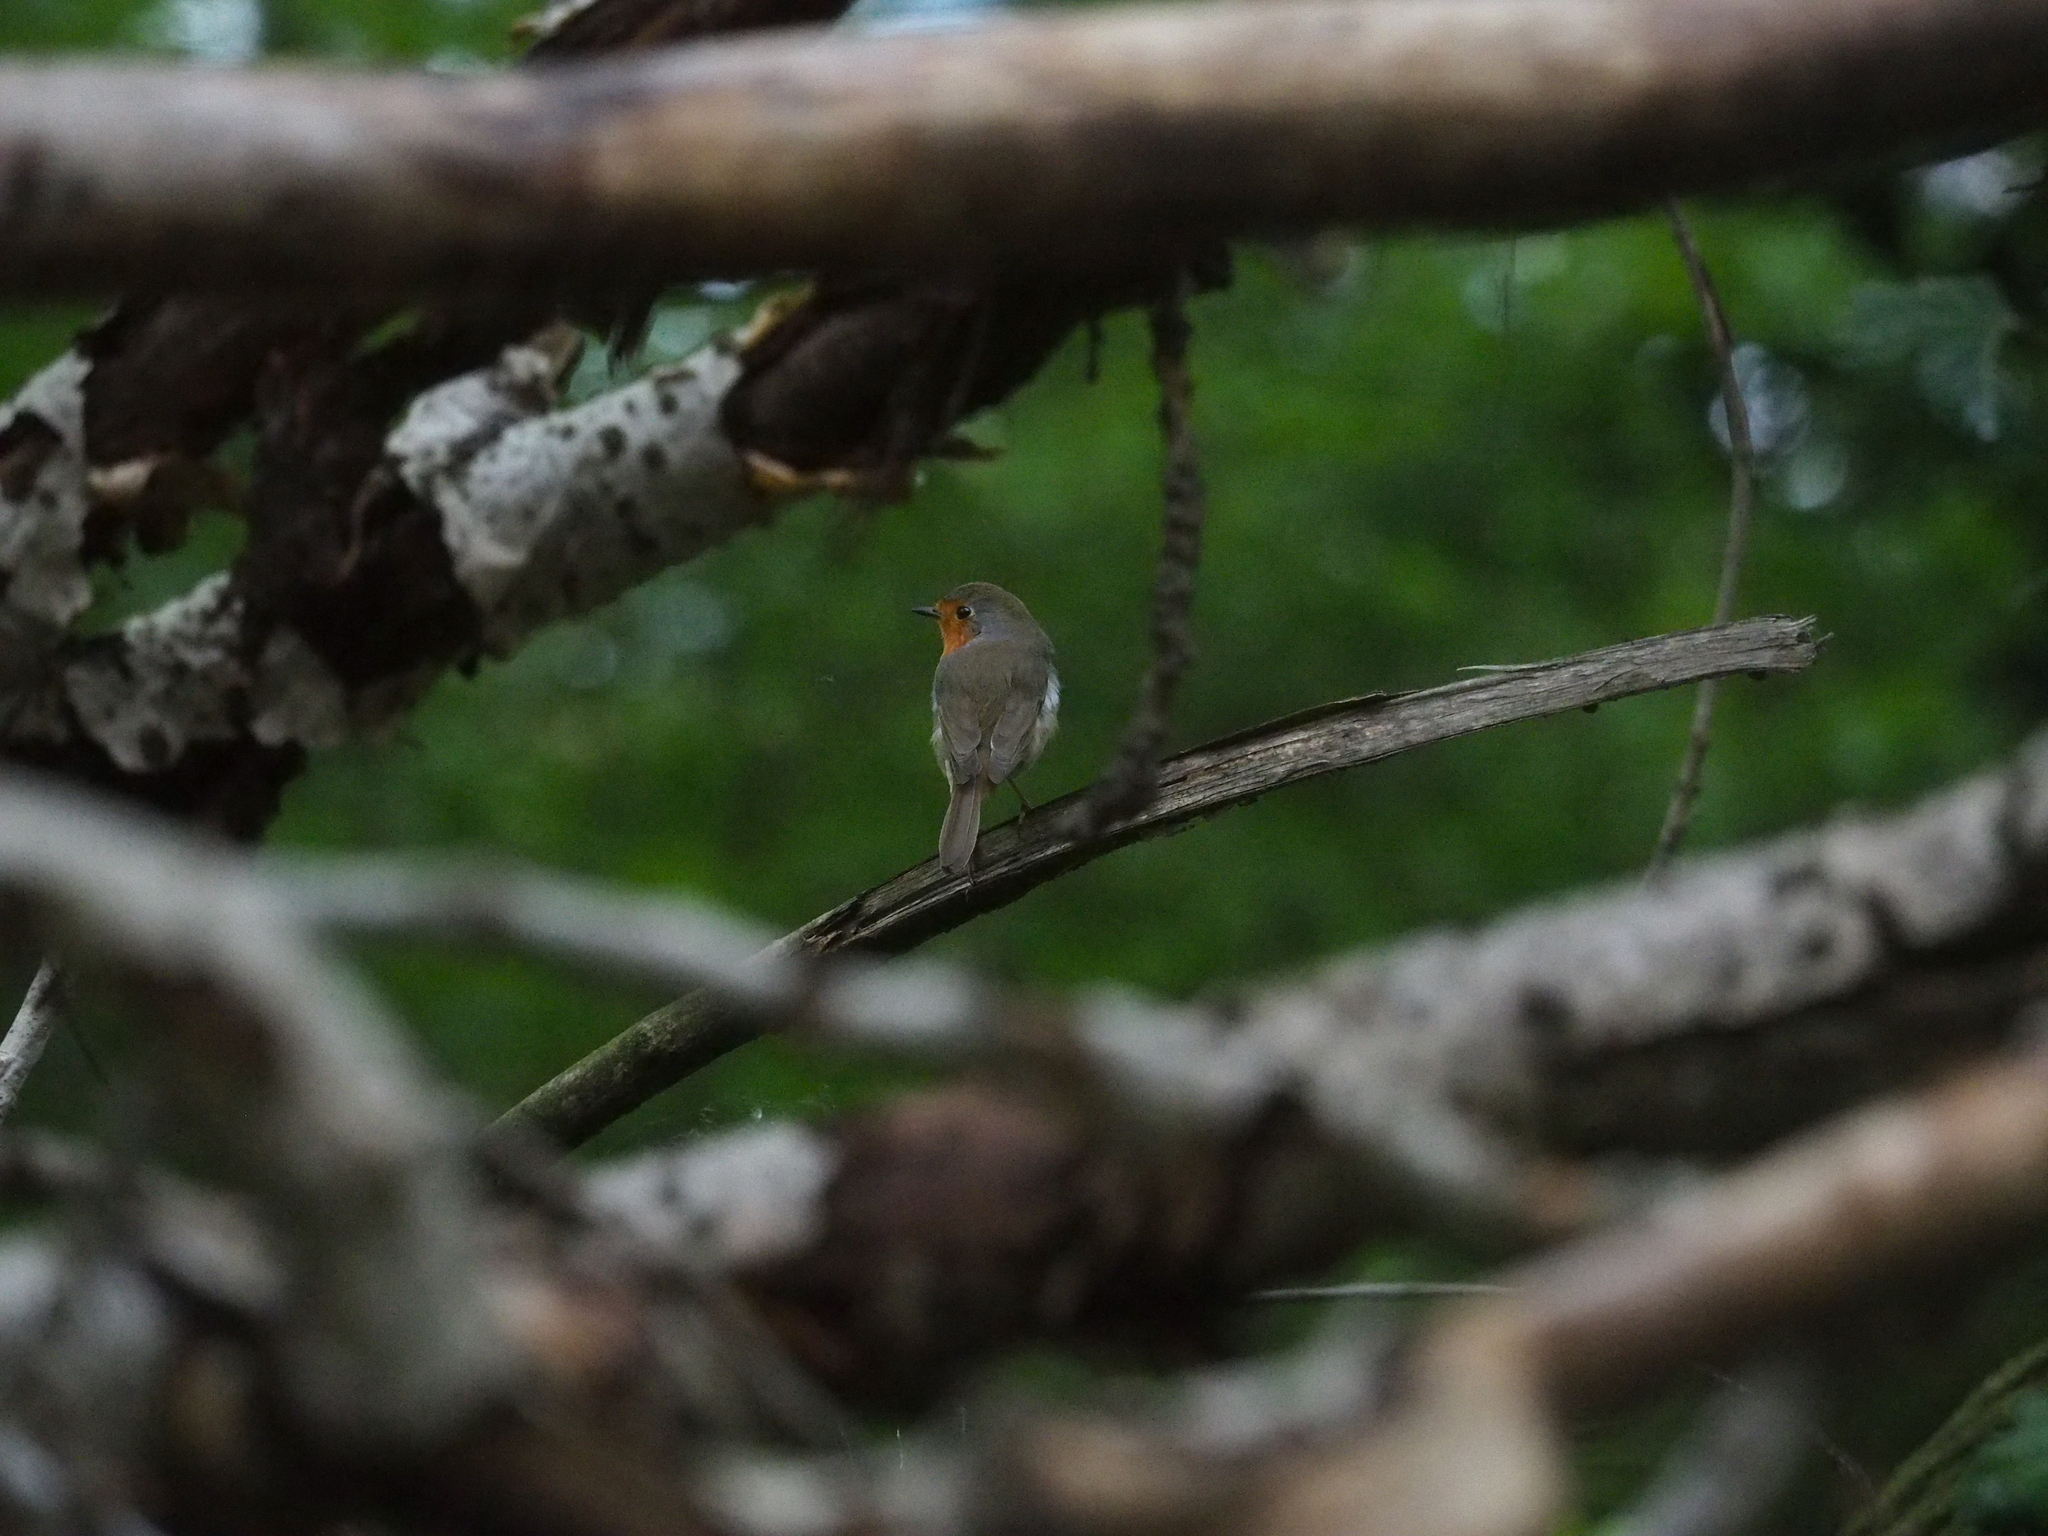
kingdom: Animalia
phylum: Chordata
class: Aves
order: Passeriformes
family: Muscicapidae
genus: Erithacus
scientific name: Erithacus rubecula
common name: European robin
